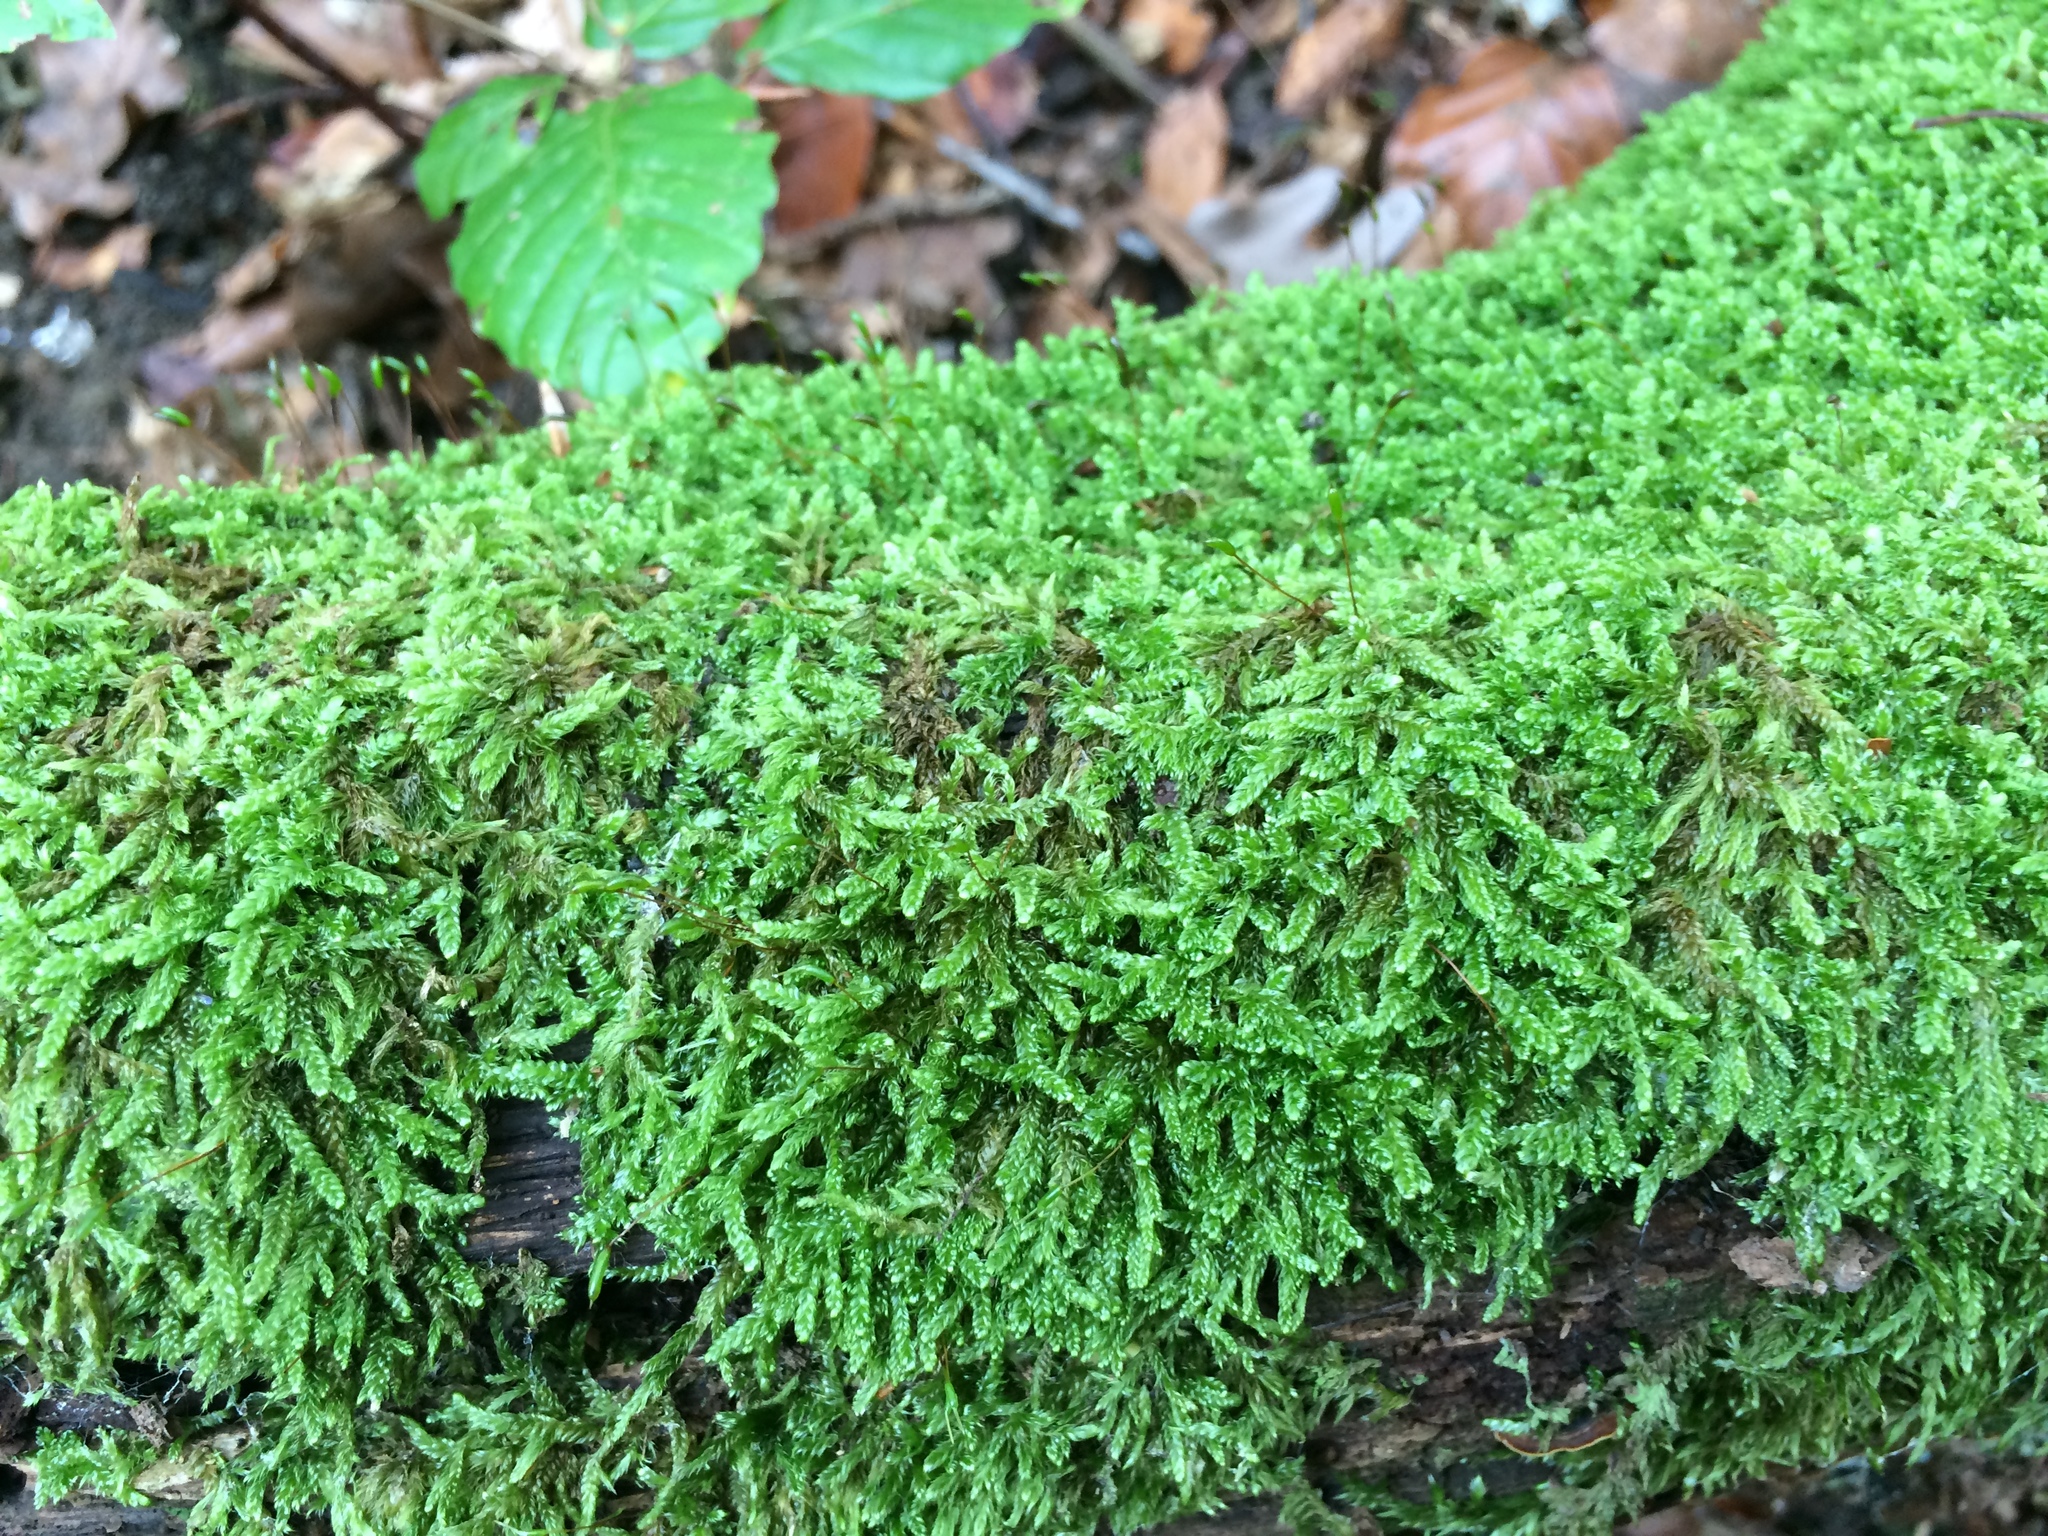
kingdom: Plantae
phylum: Bryophyta
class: Bryopsida
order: Hypnales
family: Hypnaceae
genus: Hypnum
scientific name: Hypnum cupressiforme
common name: Cypress-leaved plait-moss
